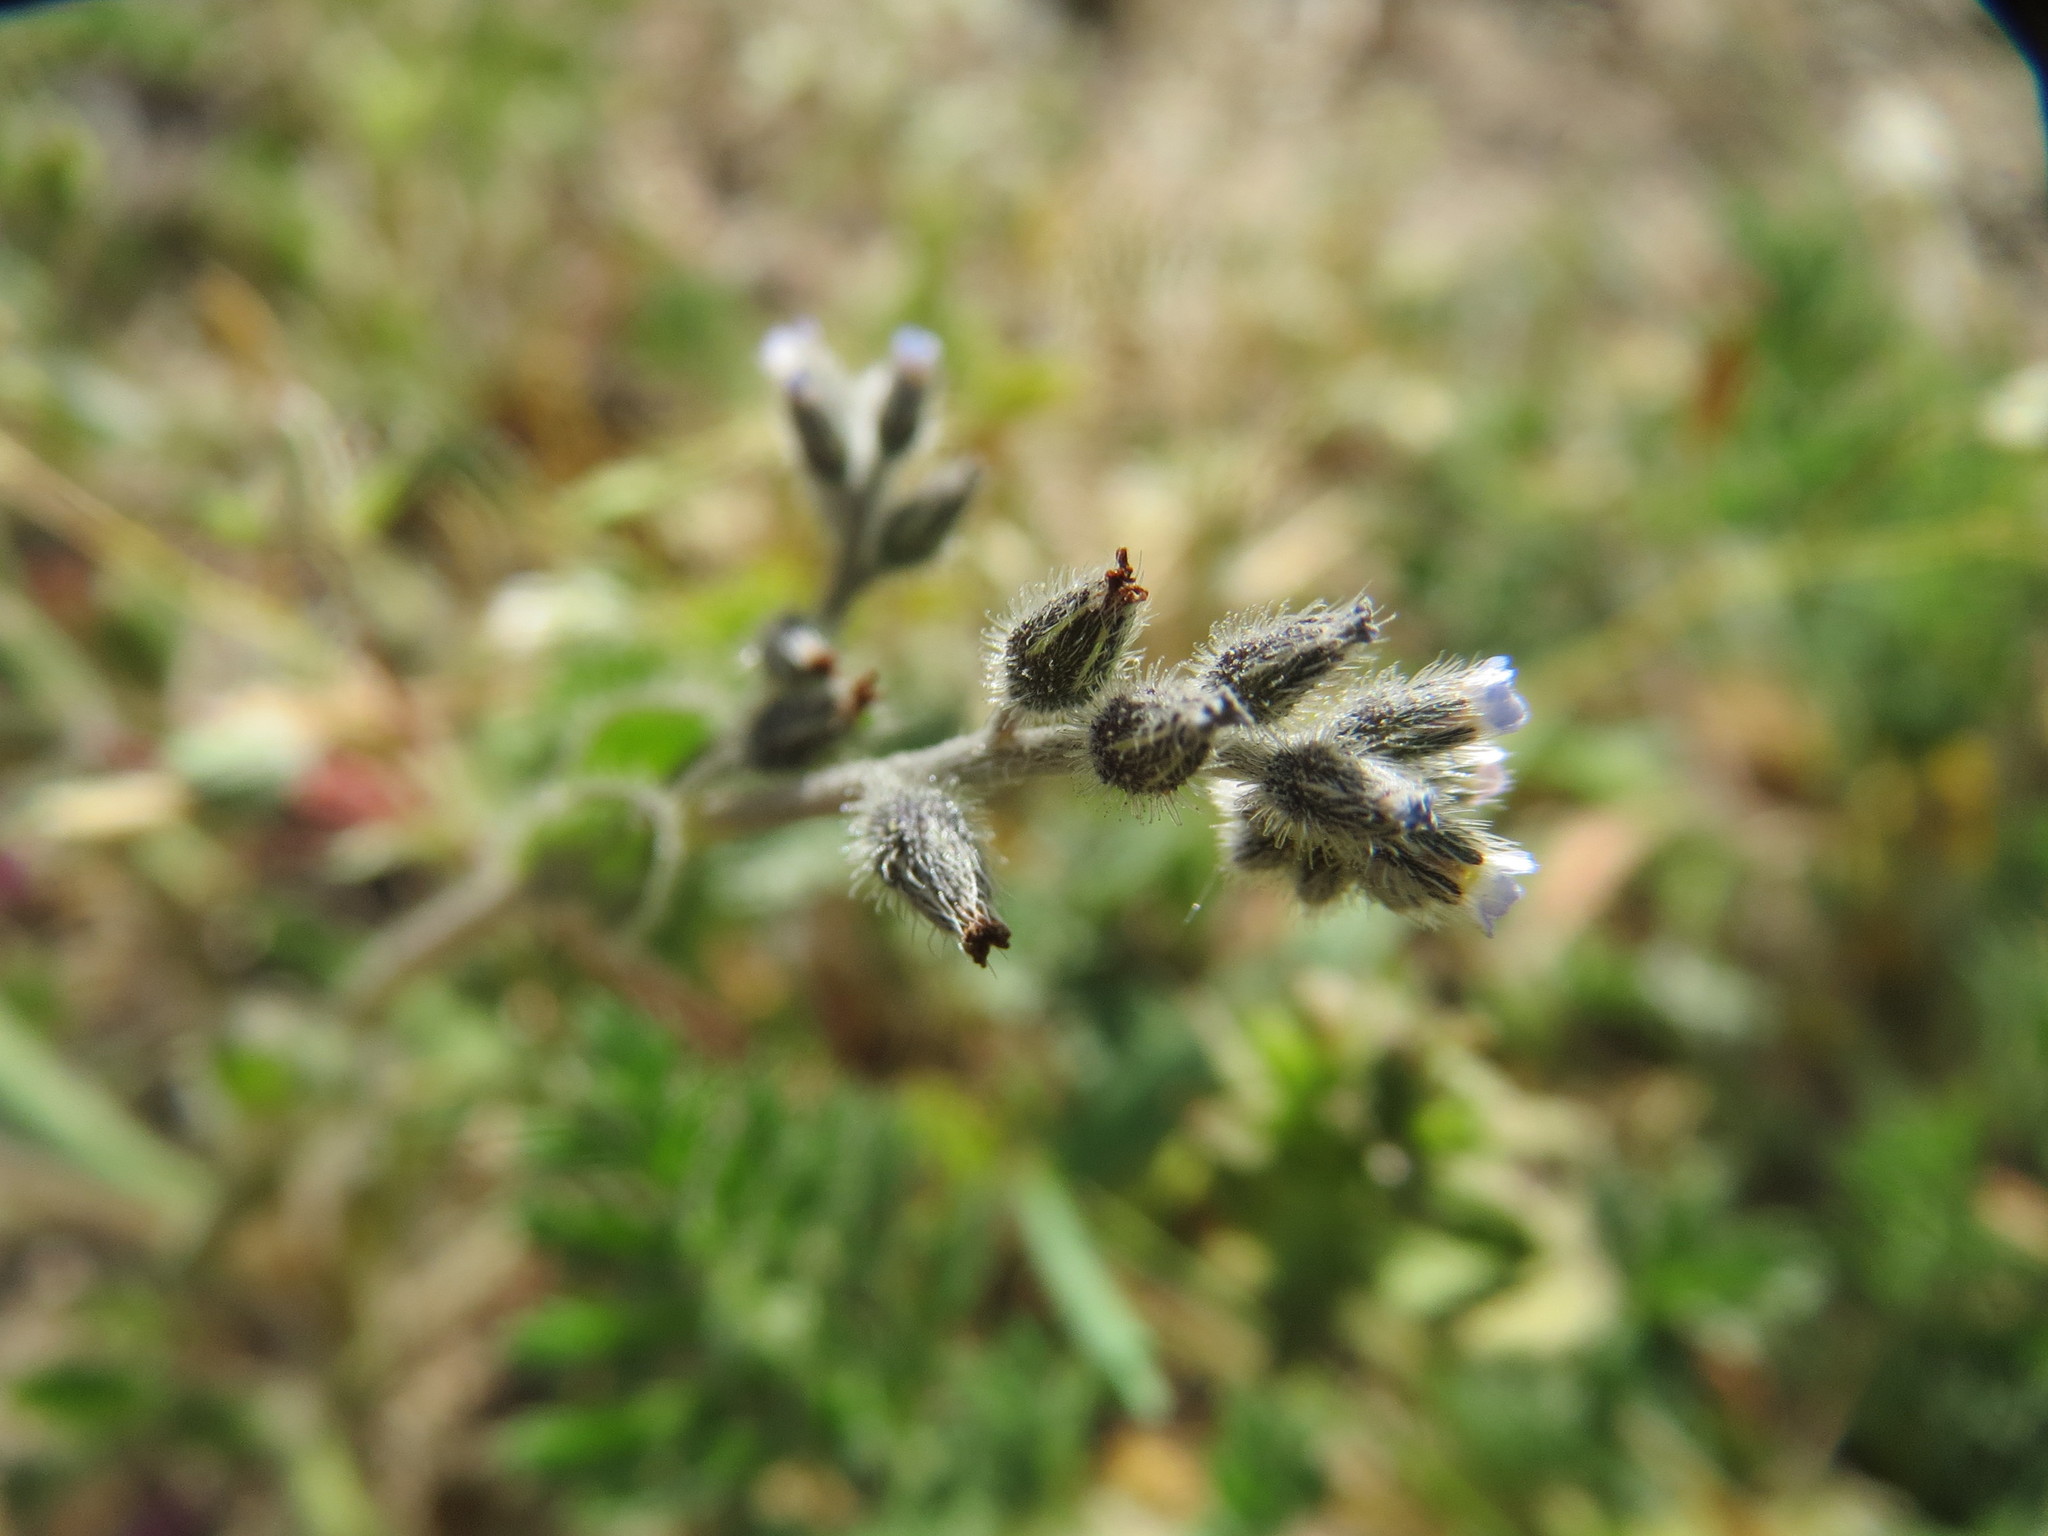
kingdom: Plantae
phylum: Tracheophyta
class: Magnoliopsida
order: Boraginales
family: Boraginaceae
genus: Myosotis
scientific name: Myosotis ramosissima
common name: Early forget-me-not
